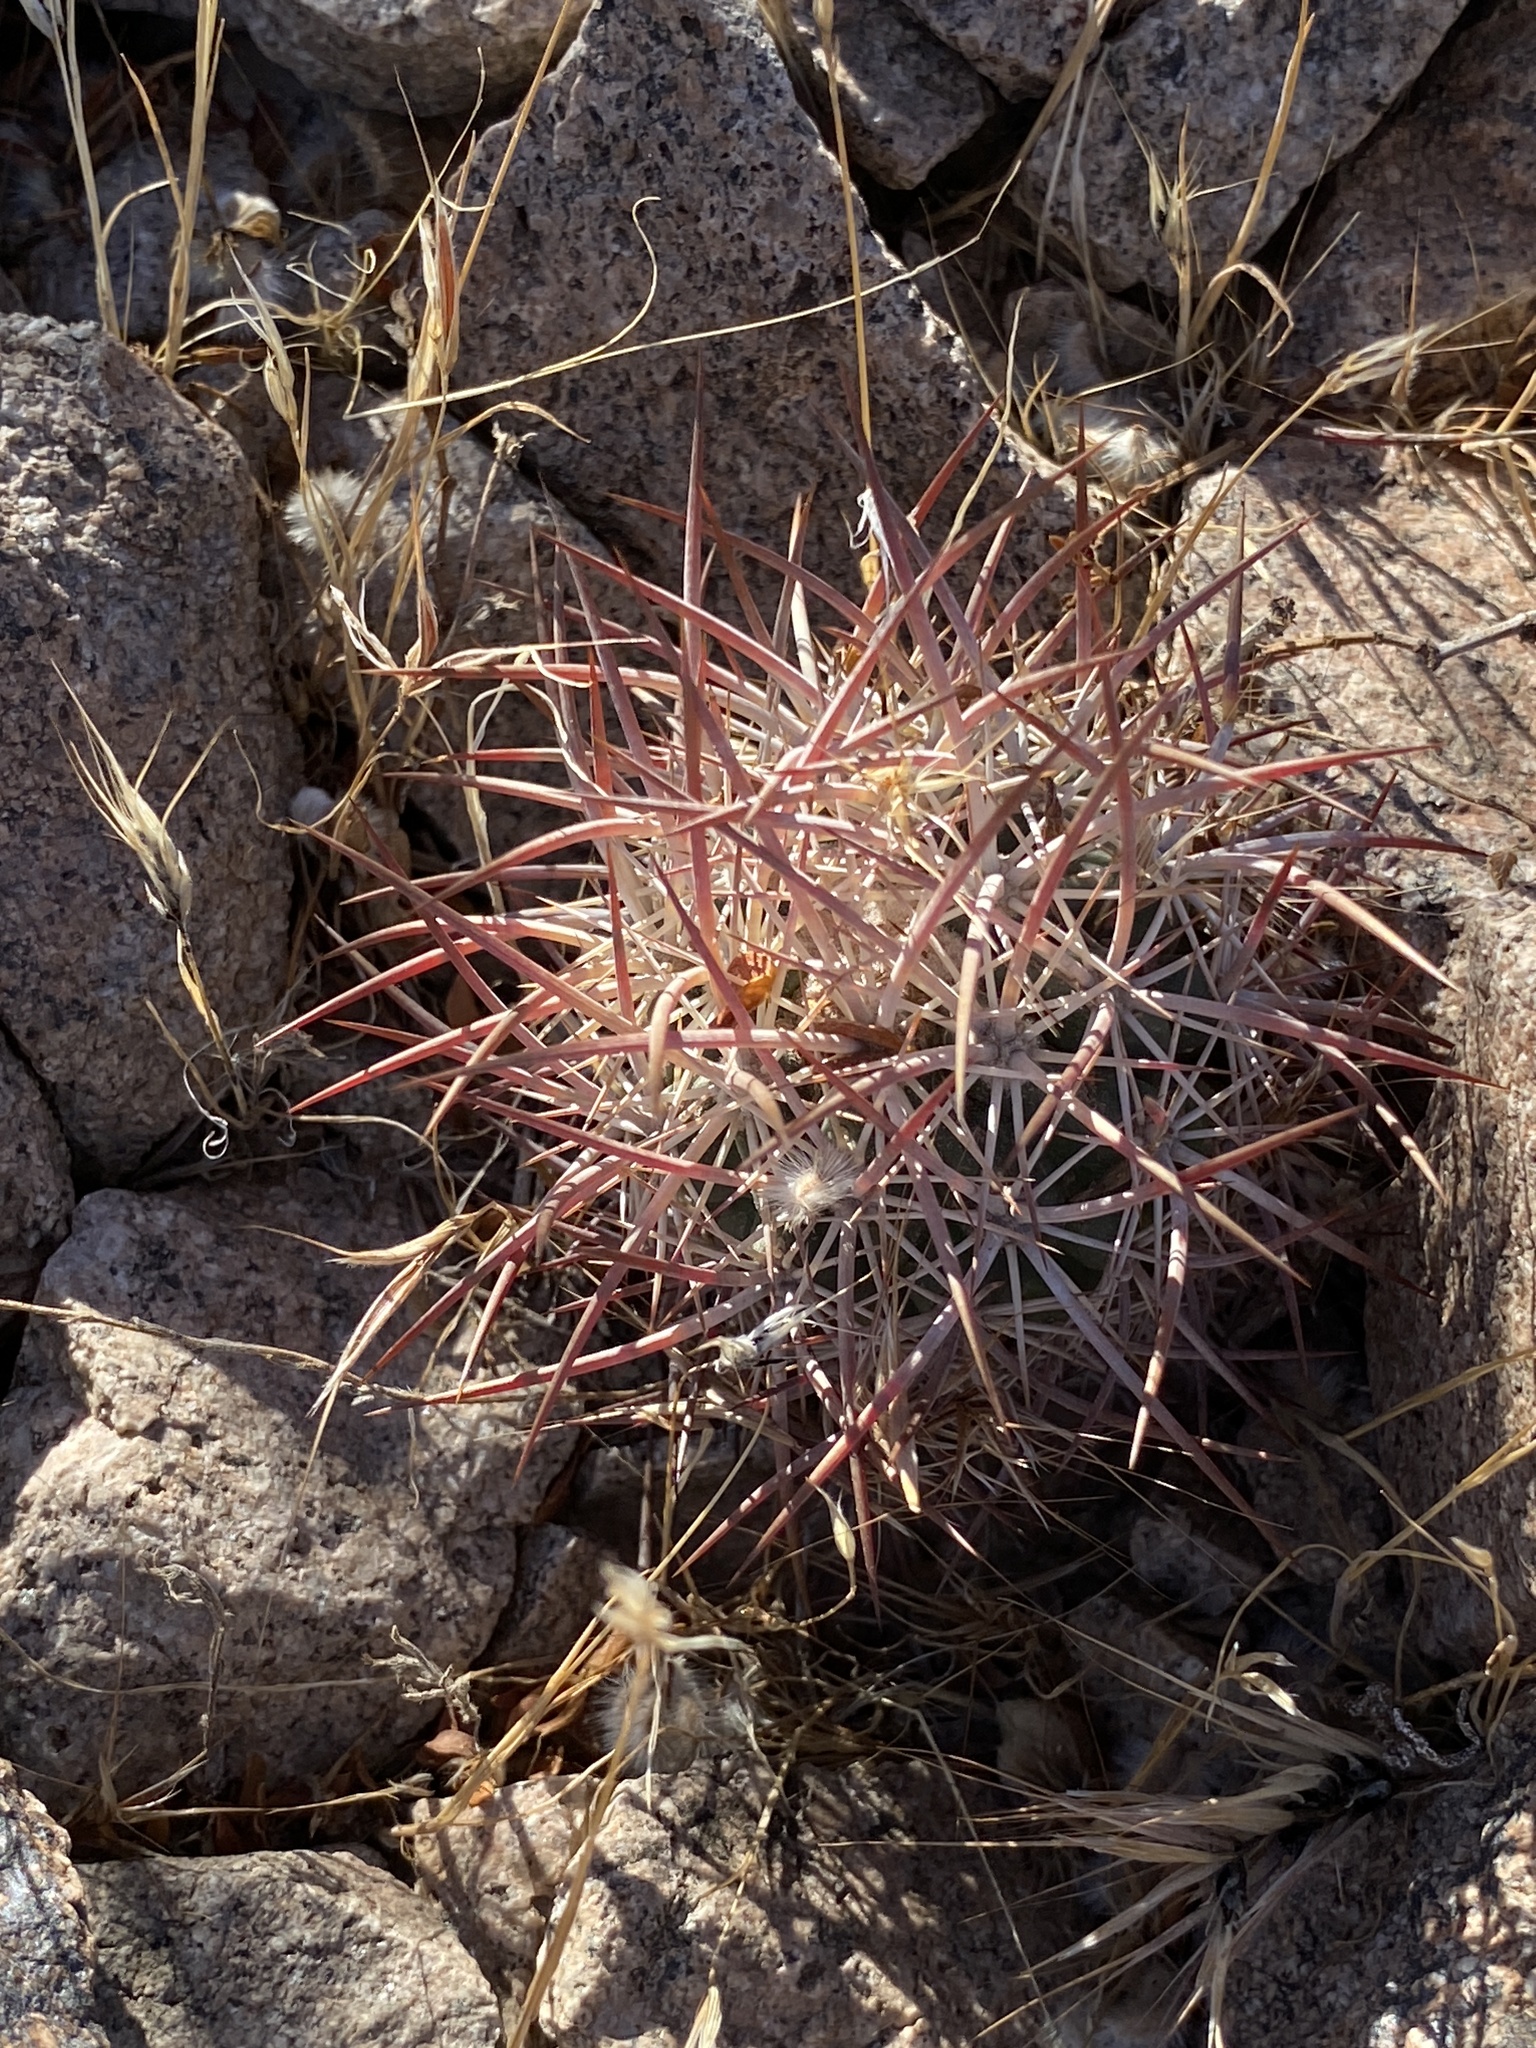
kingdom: Plantae
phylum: Tracheophyta
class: Magnoliopsida
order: Caryophyllales
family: Cactaceae
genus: Sclerocactus
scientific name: Sclerocactus johnsonii
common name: Eight-spine fishhook cactus
